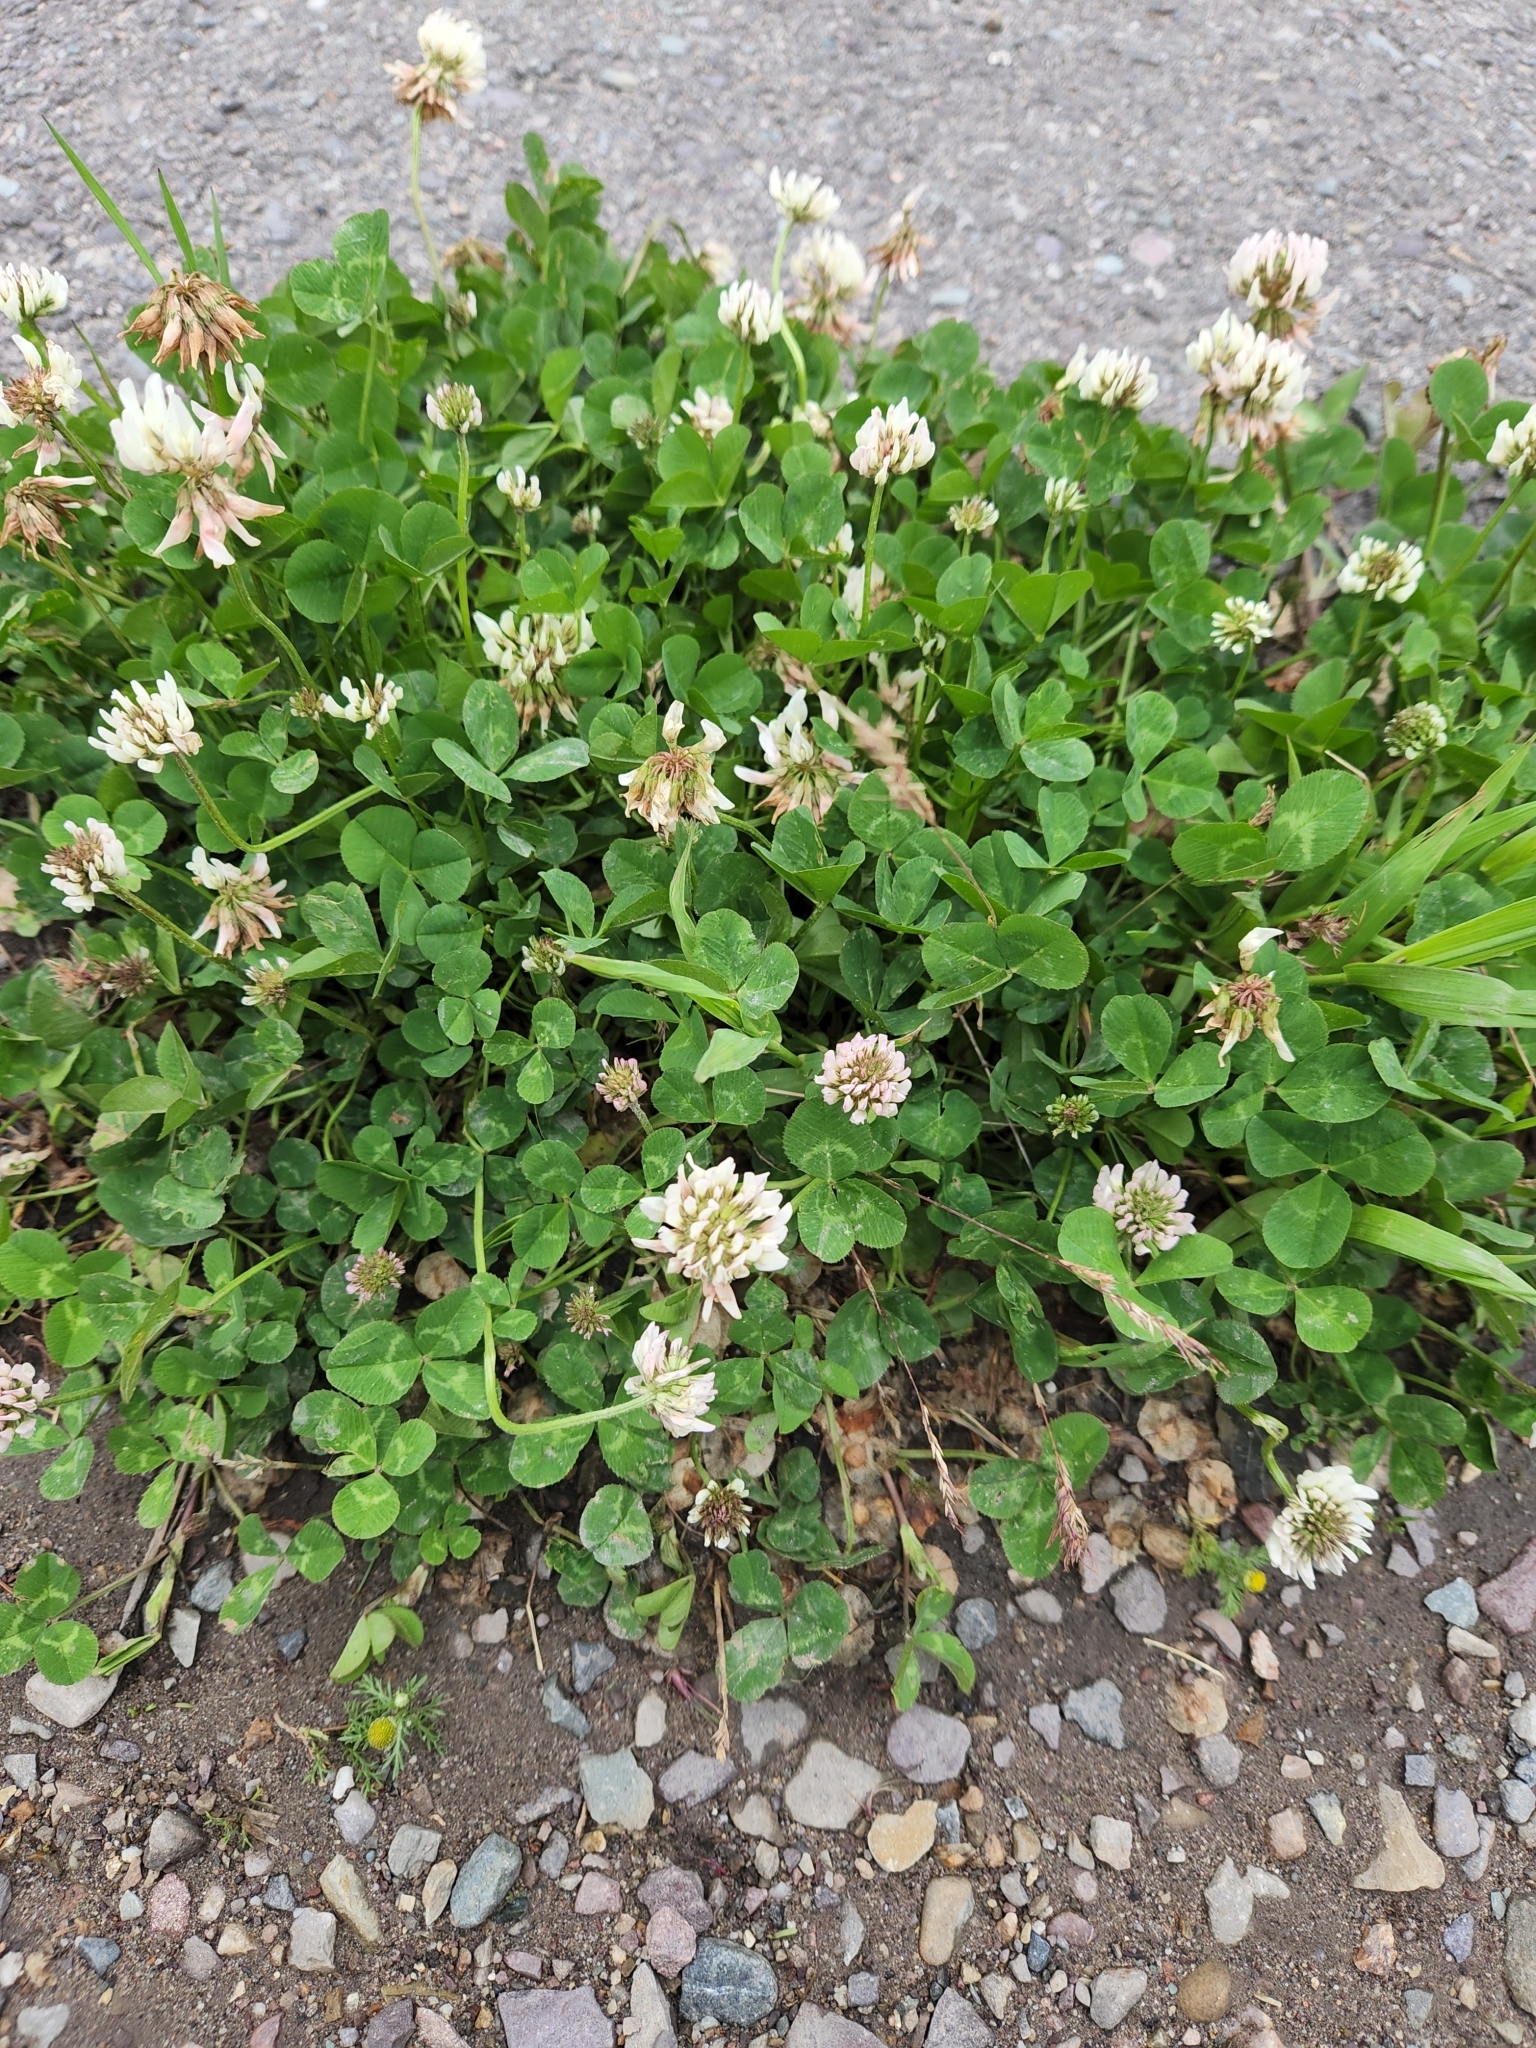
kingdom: Plantae
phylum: Tracheophyta
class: Magnoliopsida
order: Fabales
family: Fabaceae
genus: Trifolium
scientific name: Trifolium repens
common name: White clover
